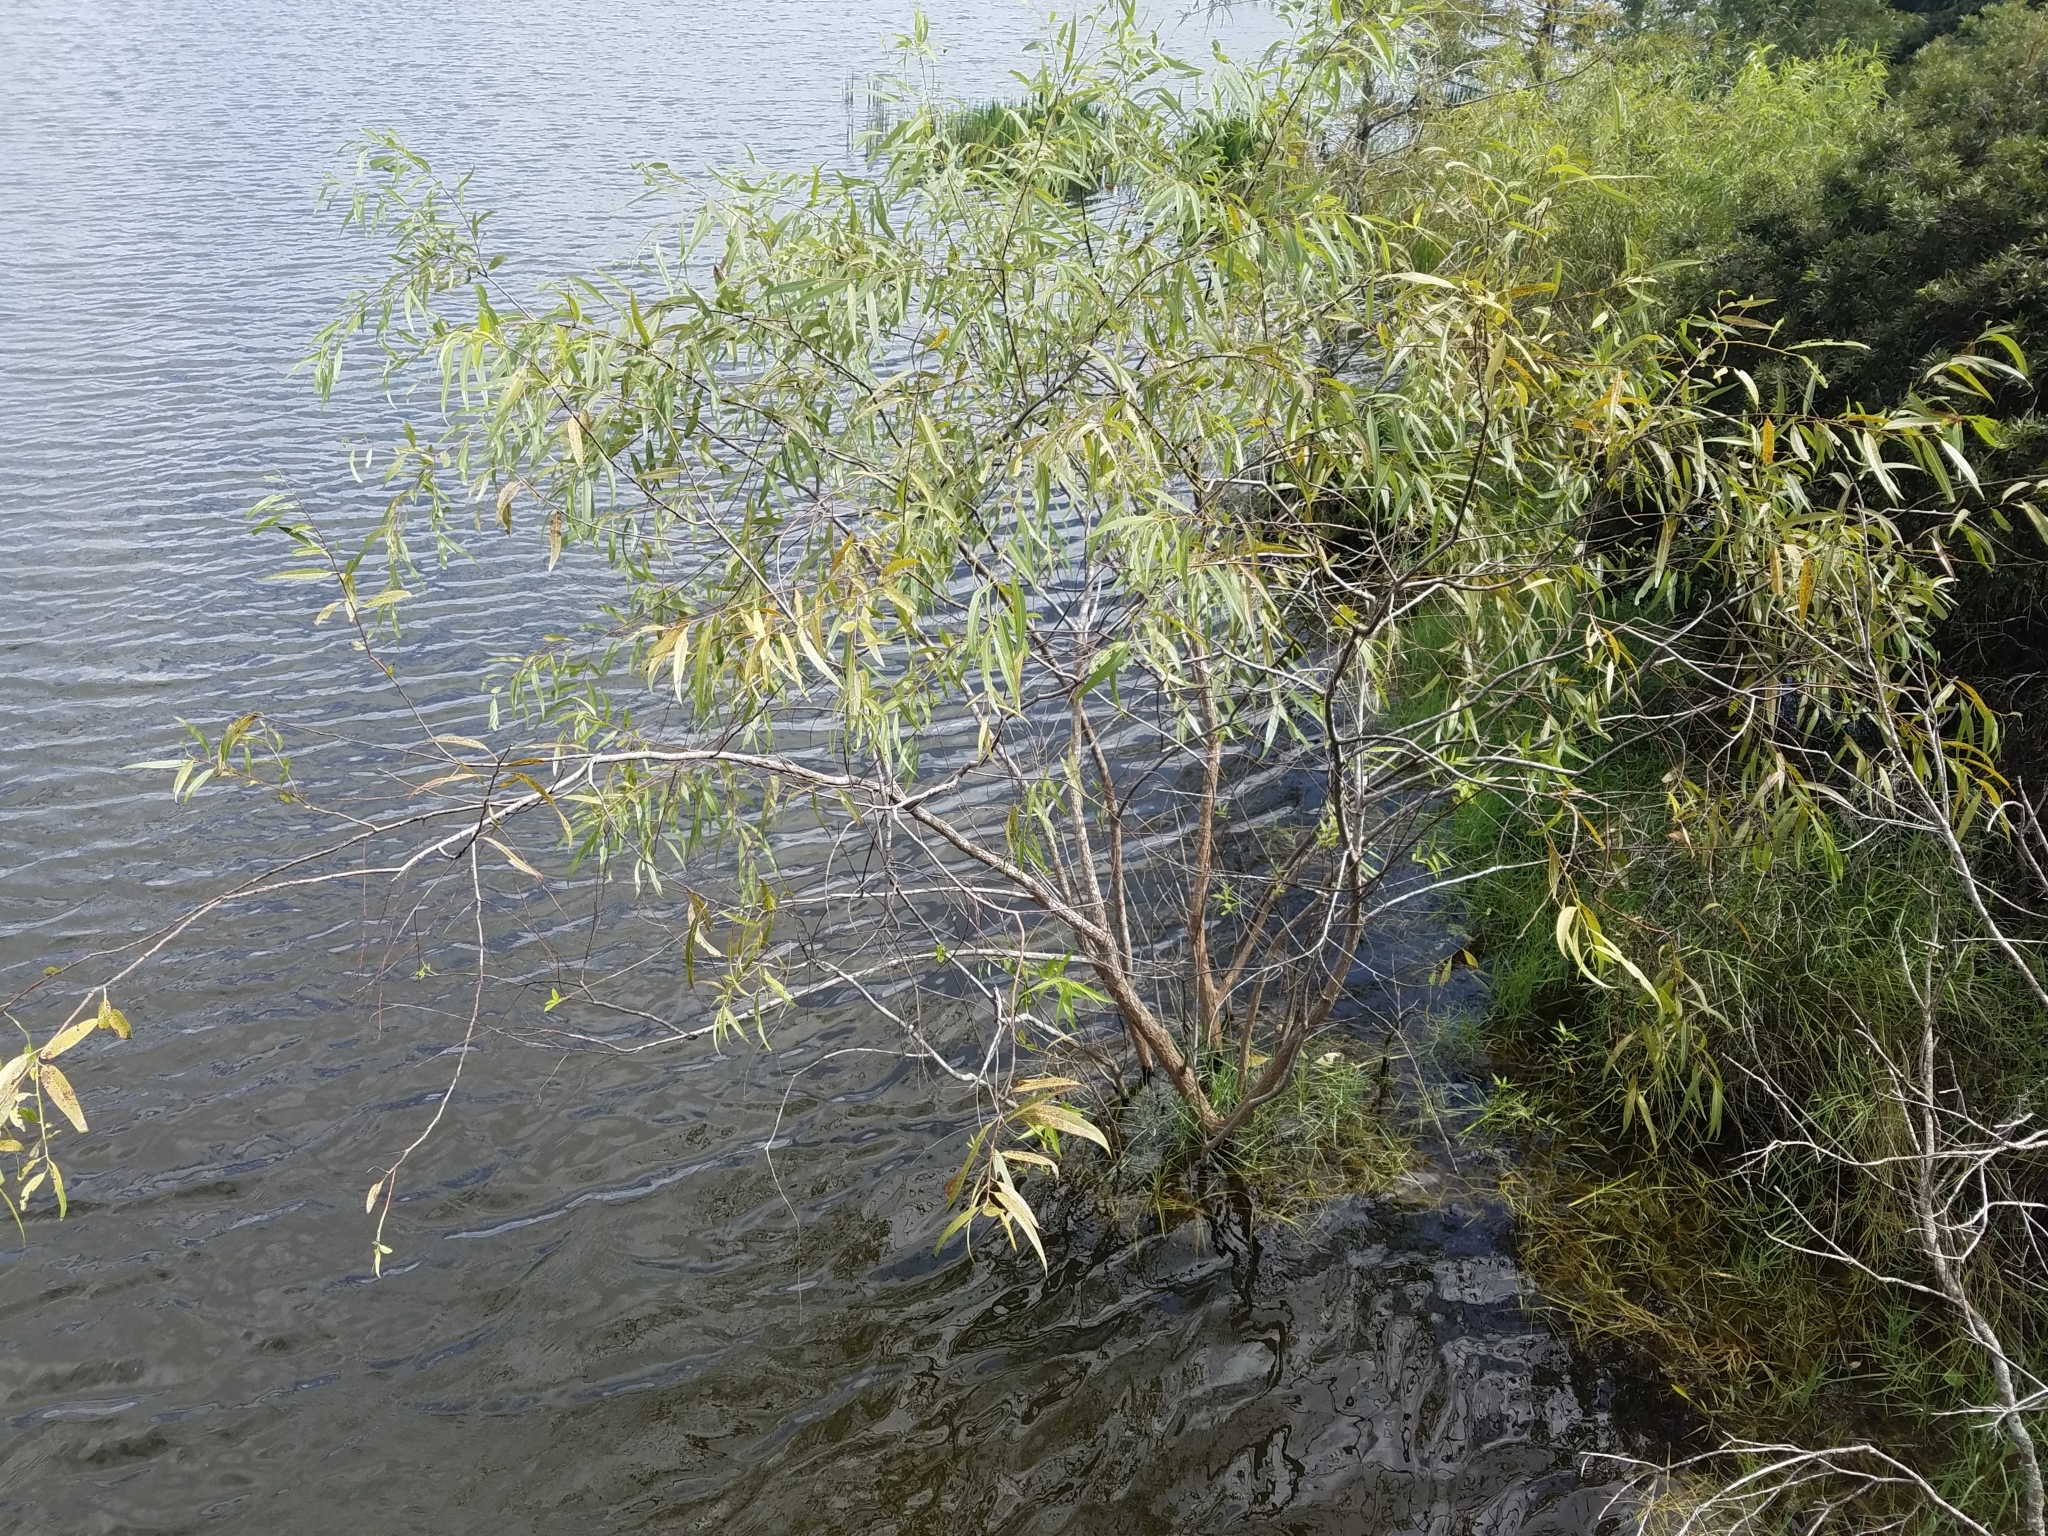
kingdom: Plantae
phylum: Tracheophyta
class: Magnoliopsida
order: Malpighiales
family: Salicaceae
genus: Salix
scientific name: Salix caroliniana
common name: Carolina willow
